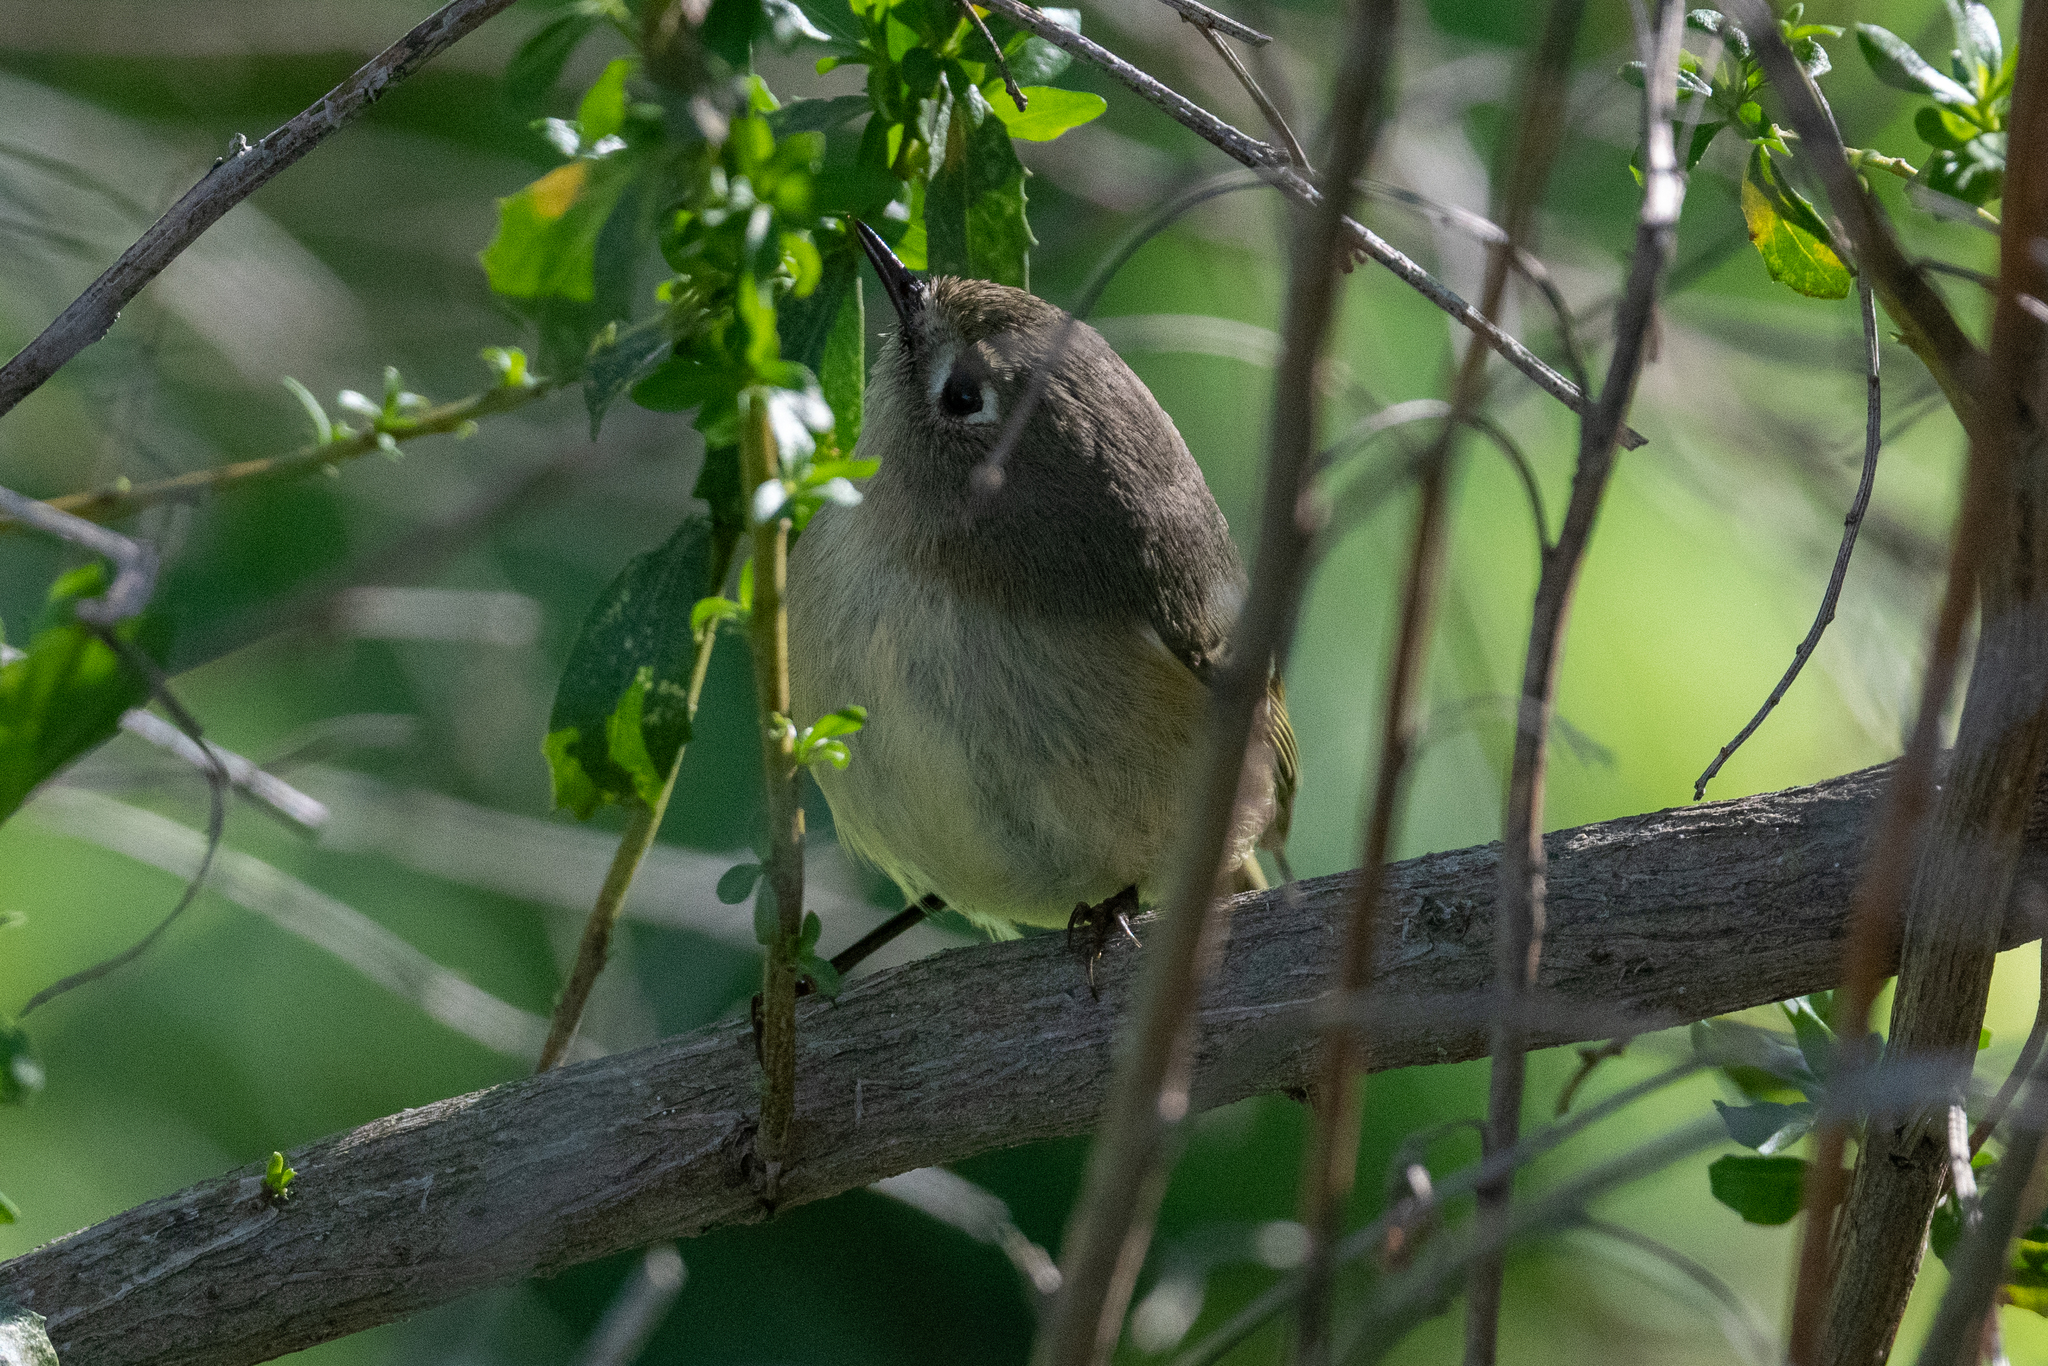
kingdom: Animalia
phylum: Chordata
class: Aves
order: Passeriformes
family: Regulidae
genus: Regulus
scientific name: Regulus calendula
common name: Ruby-crowned kinglet
